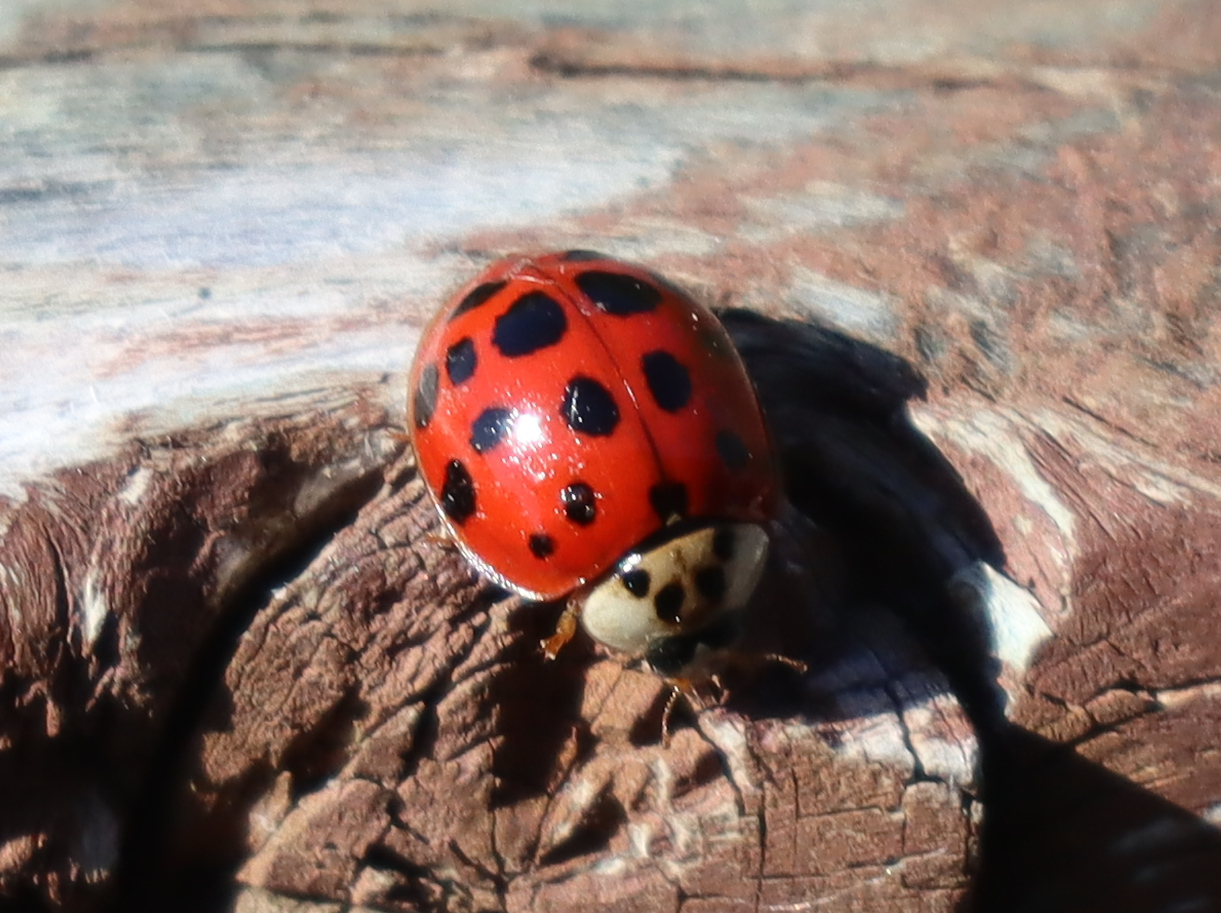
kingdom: Animalia
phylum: Arthropoda
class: Insecta
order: Coleoptera
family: Coccinellidae
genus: Harmonia
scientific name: Harmonia axyridis
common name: Harlequin ladybird
